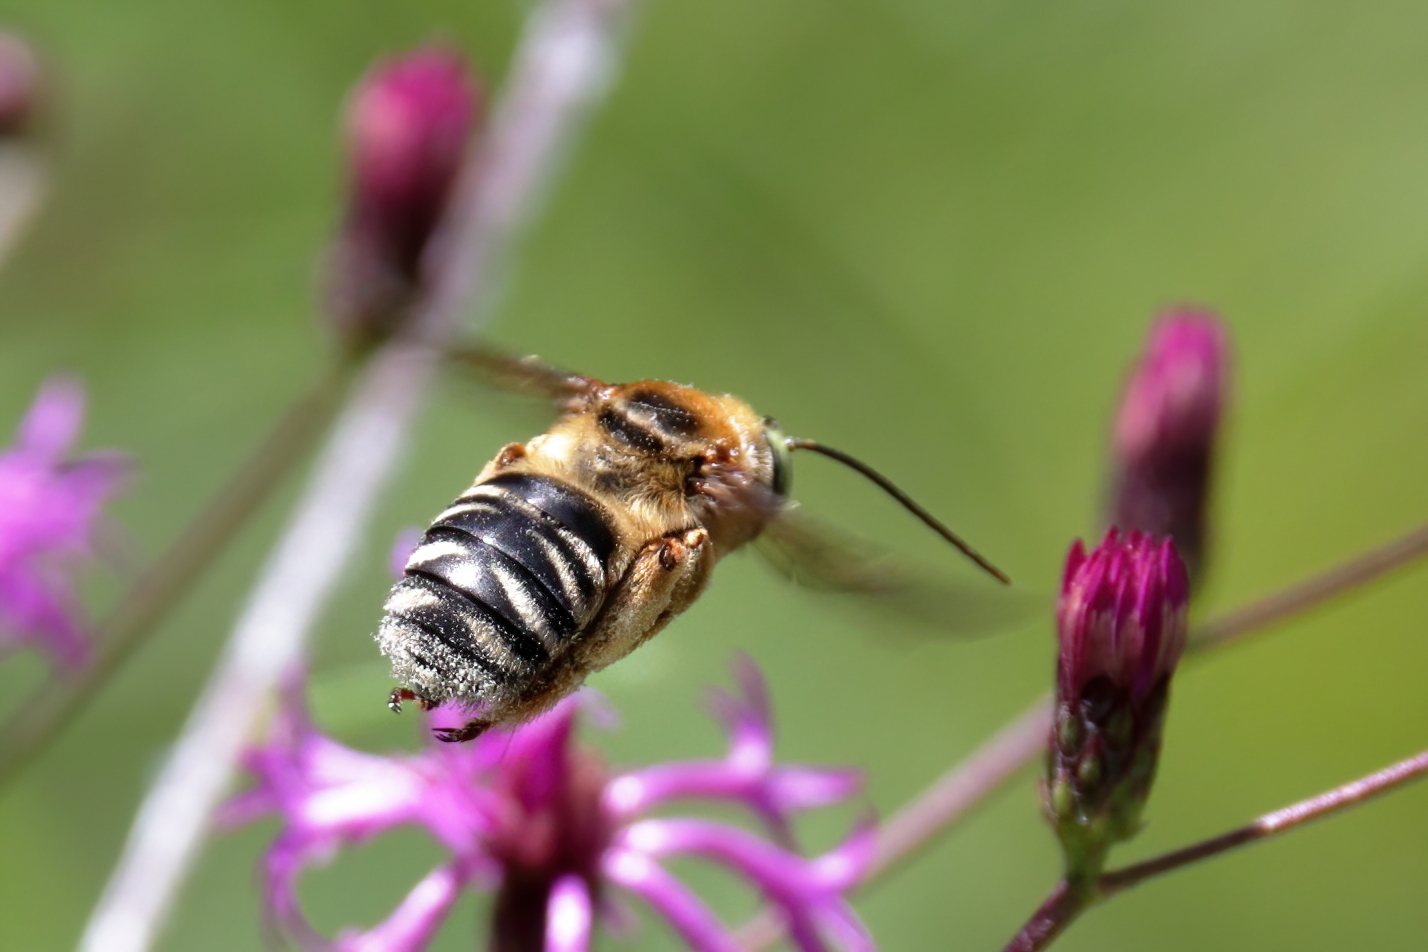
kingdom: Animalia
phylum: Arthropoda
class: Insecta
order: Hymenoptera
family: Apidae
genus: Svastra
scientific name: Svastra aegis
